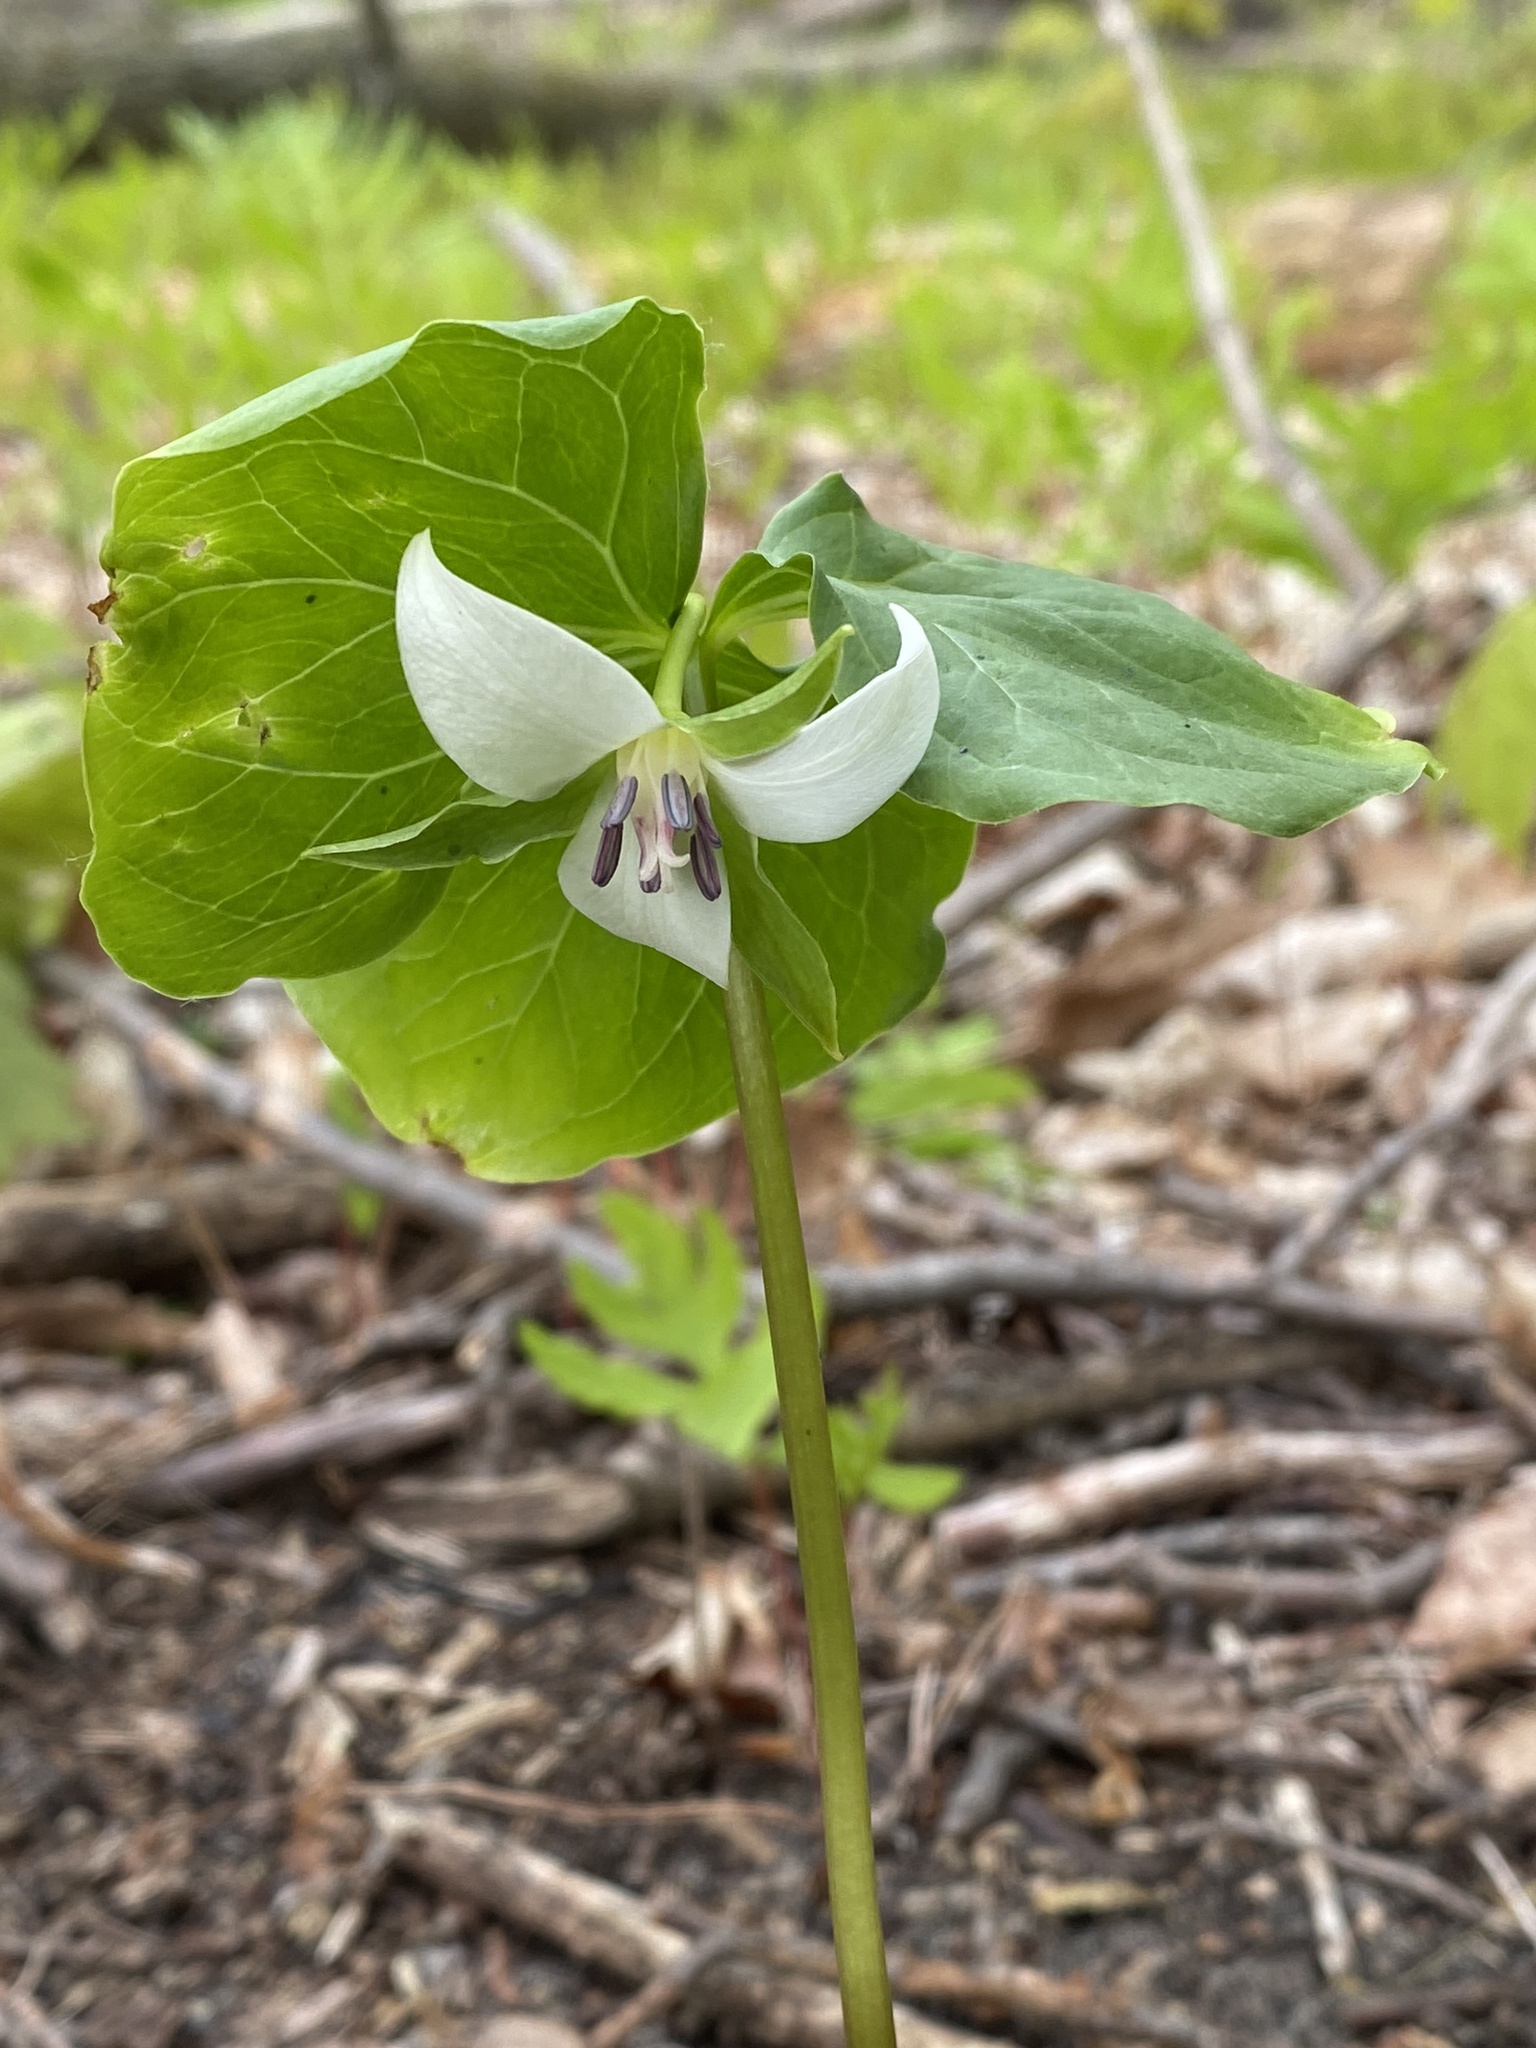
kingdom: Plantae
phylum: Tracheophyta
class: Liliopsida
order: Liliales
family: Melanthiaceae
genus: Trillium
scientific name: Trillium cernuum
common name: Nodding trillium
